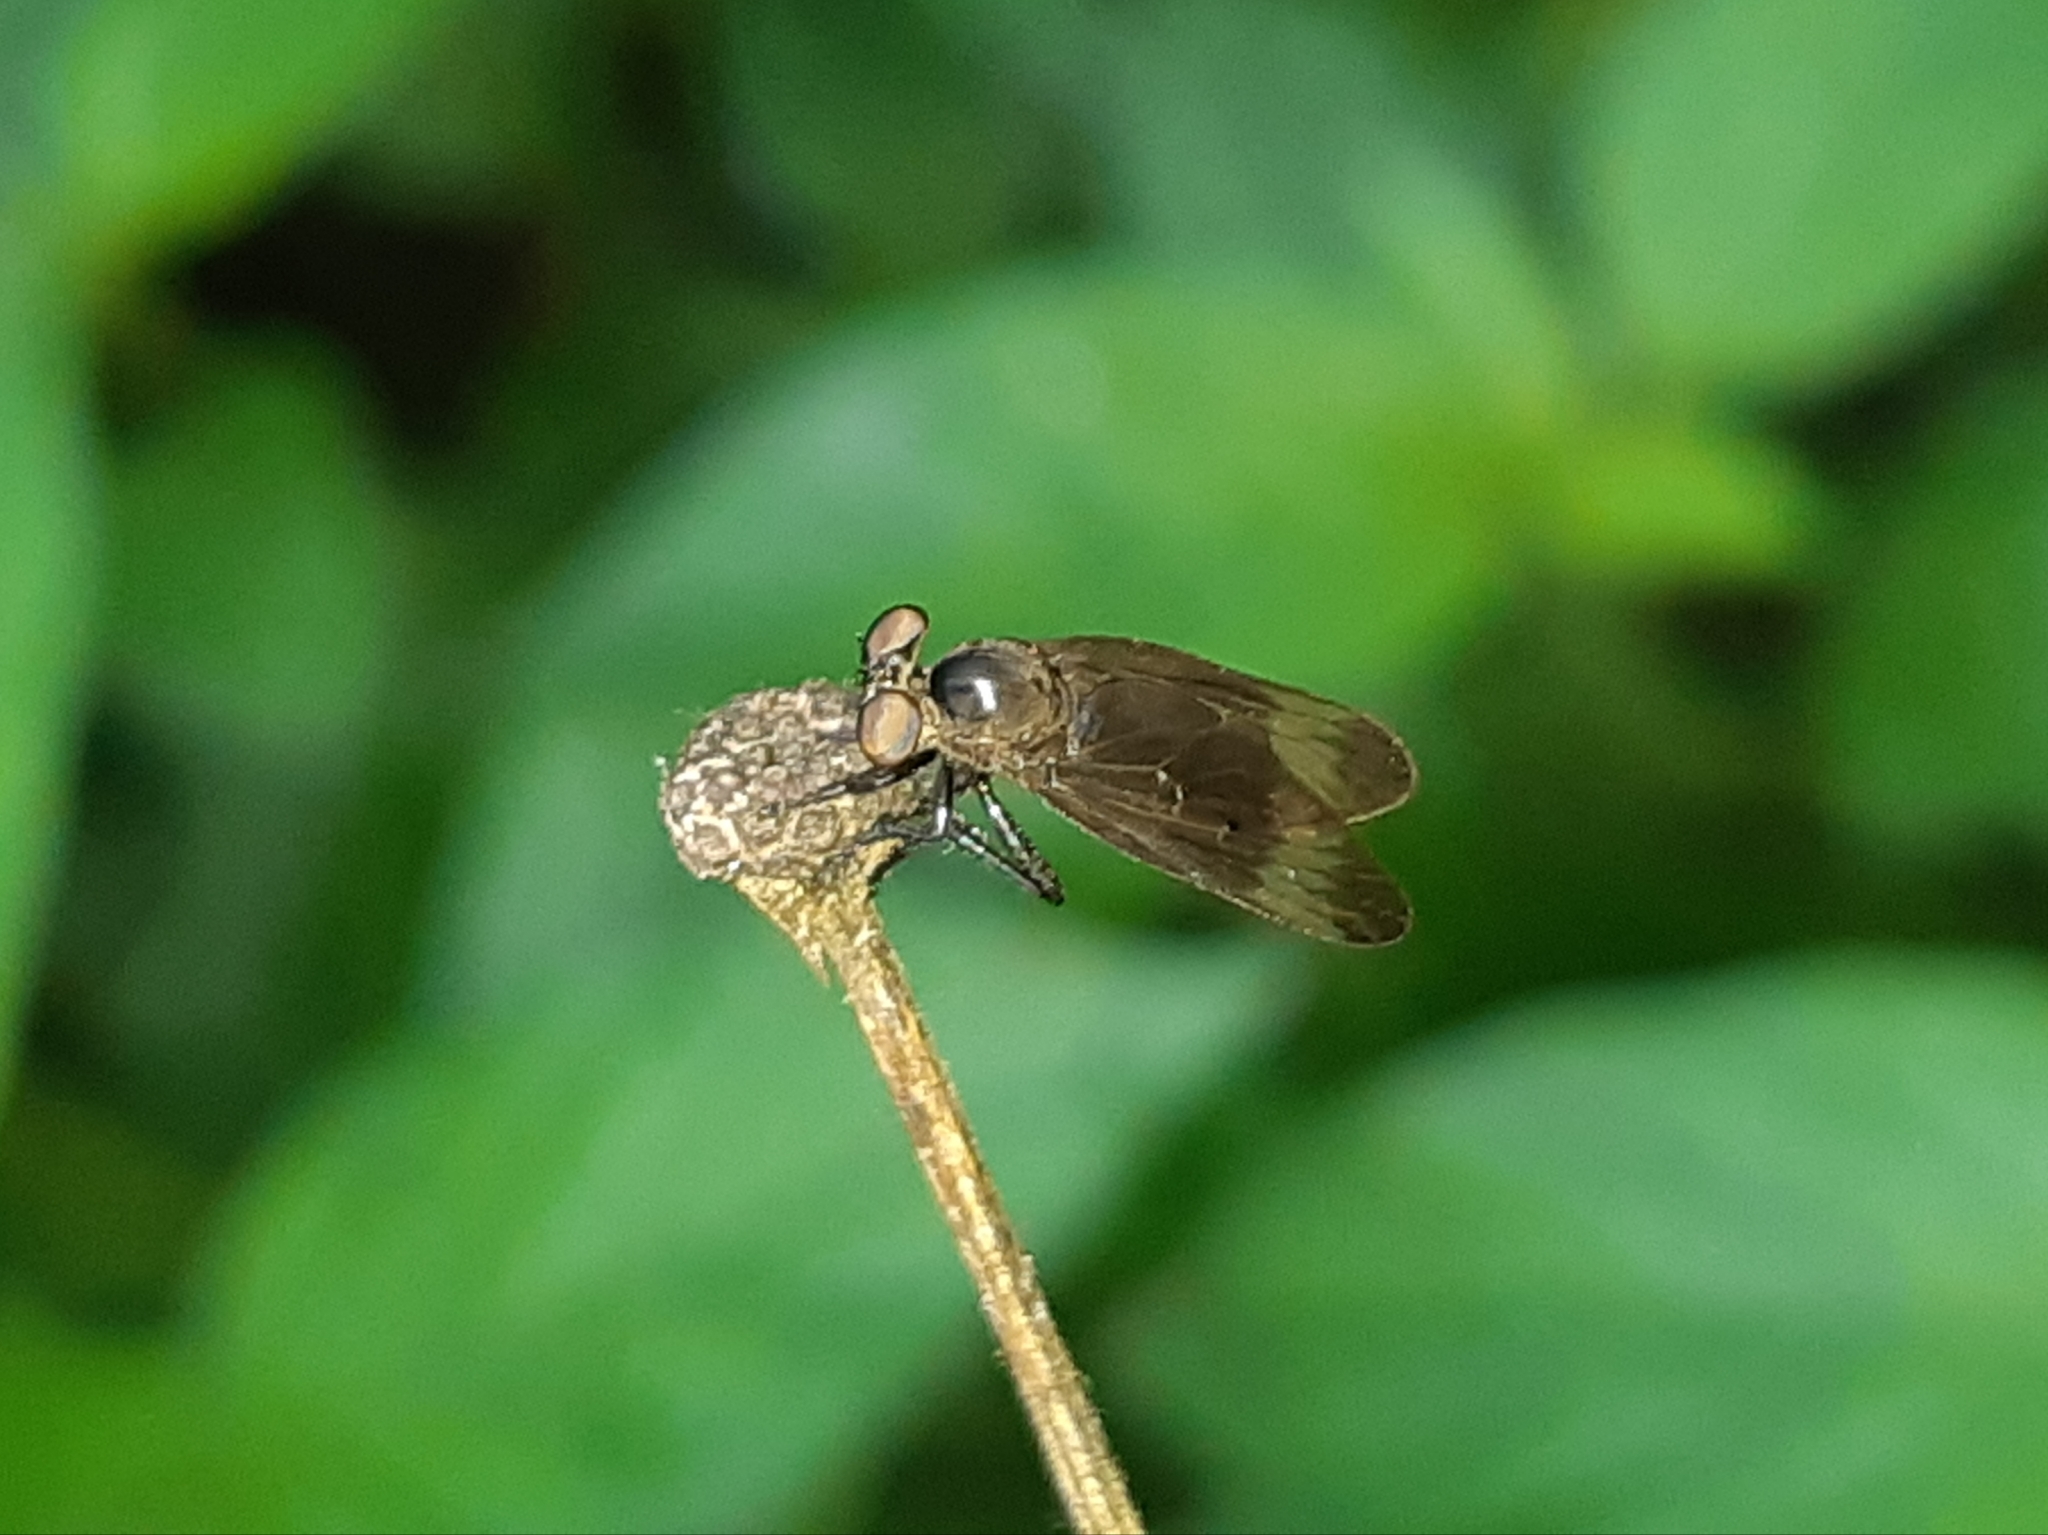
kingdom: Animalia
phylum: Arthropoda
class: Insecta
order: Diptera
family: Asilidae
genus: Holcocephala
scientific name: Holcocephala analis
